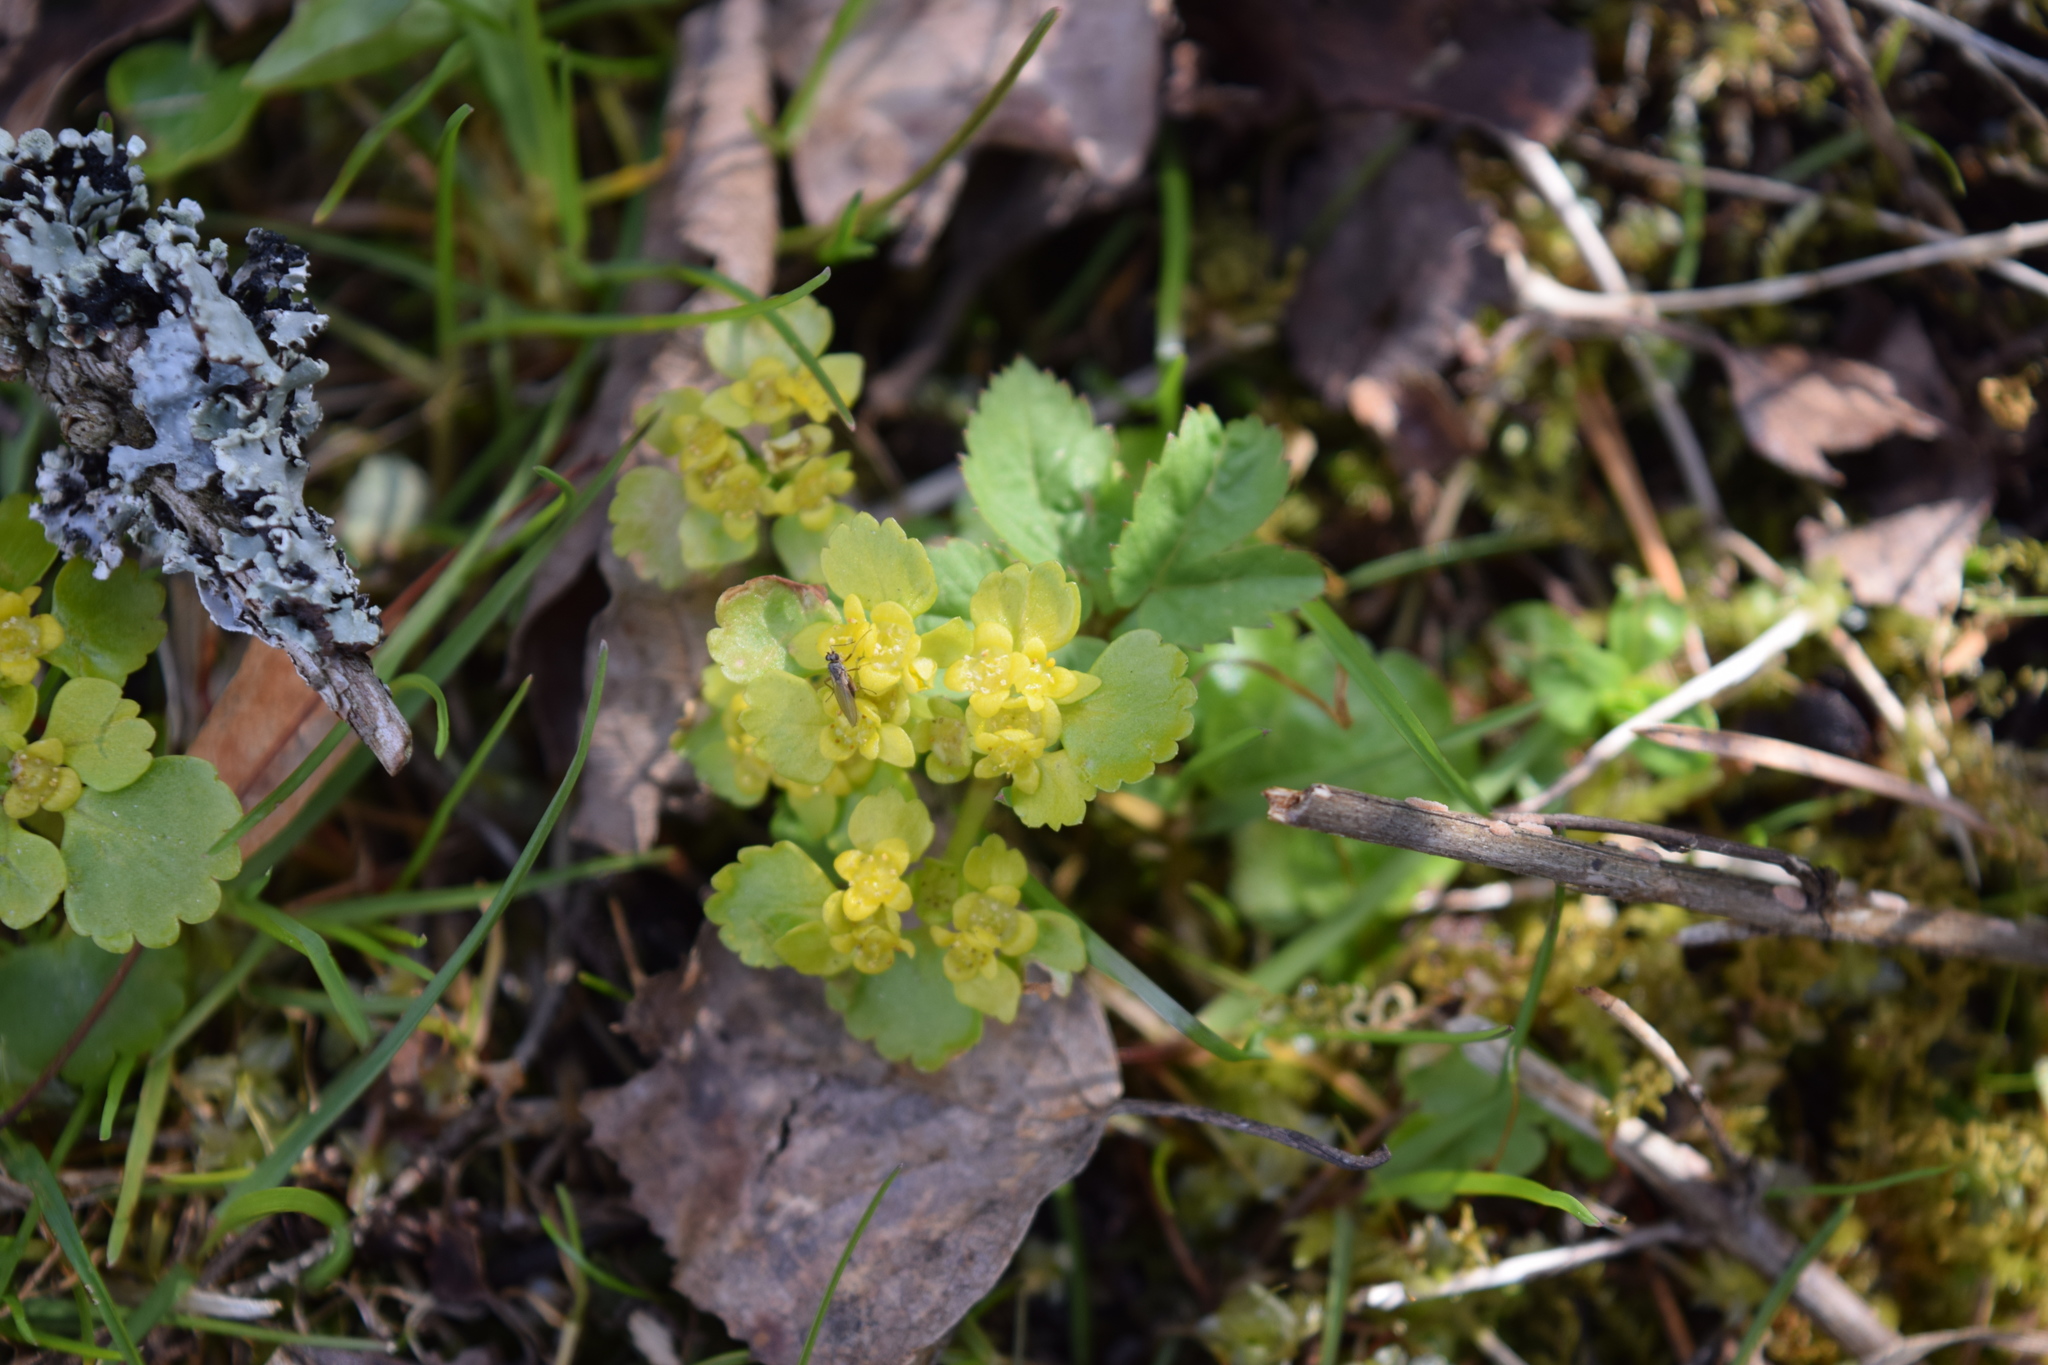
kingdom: Plantae
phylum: Tracheophyta
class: Magnoliopsida
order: Saxifragales
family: Saxifragaceae
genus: Chrysosplenium
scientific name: Chrysosplenium alternifolium
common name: Alternate-leaved golden-saxifrage
